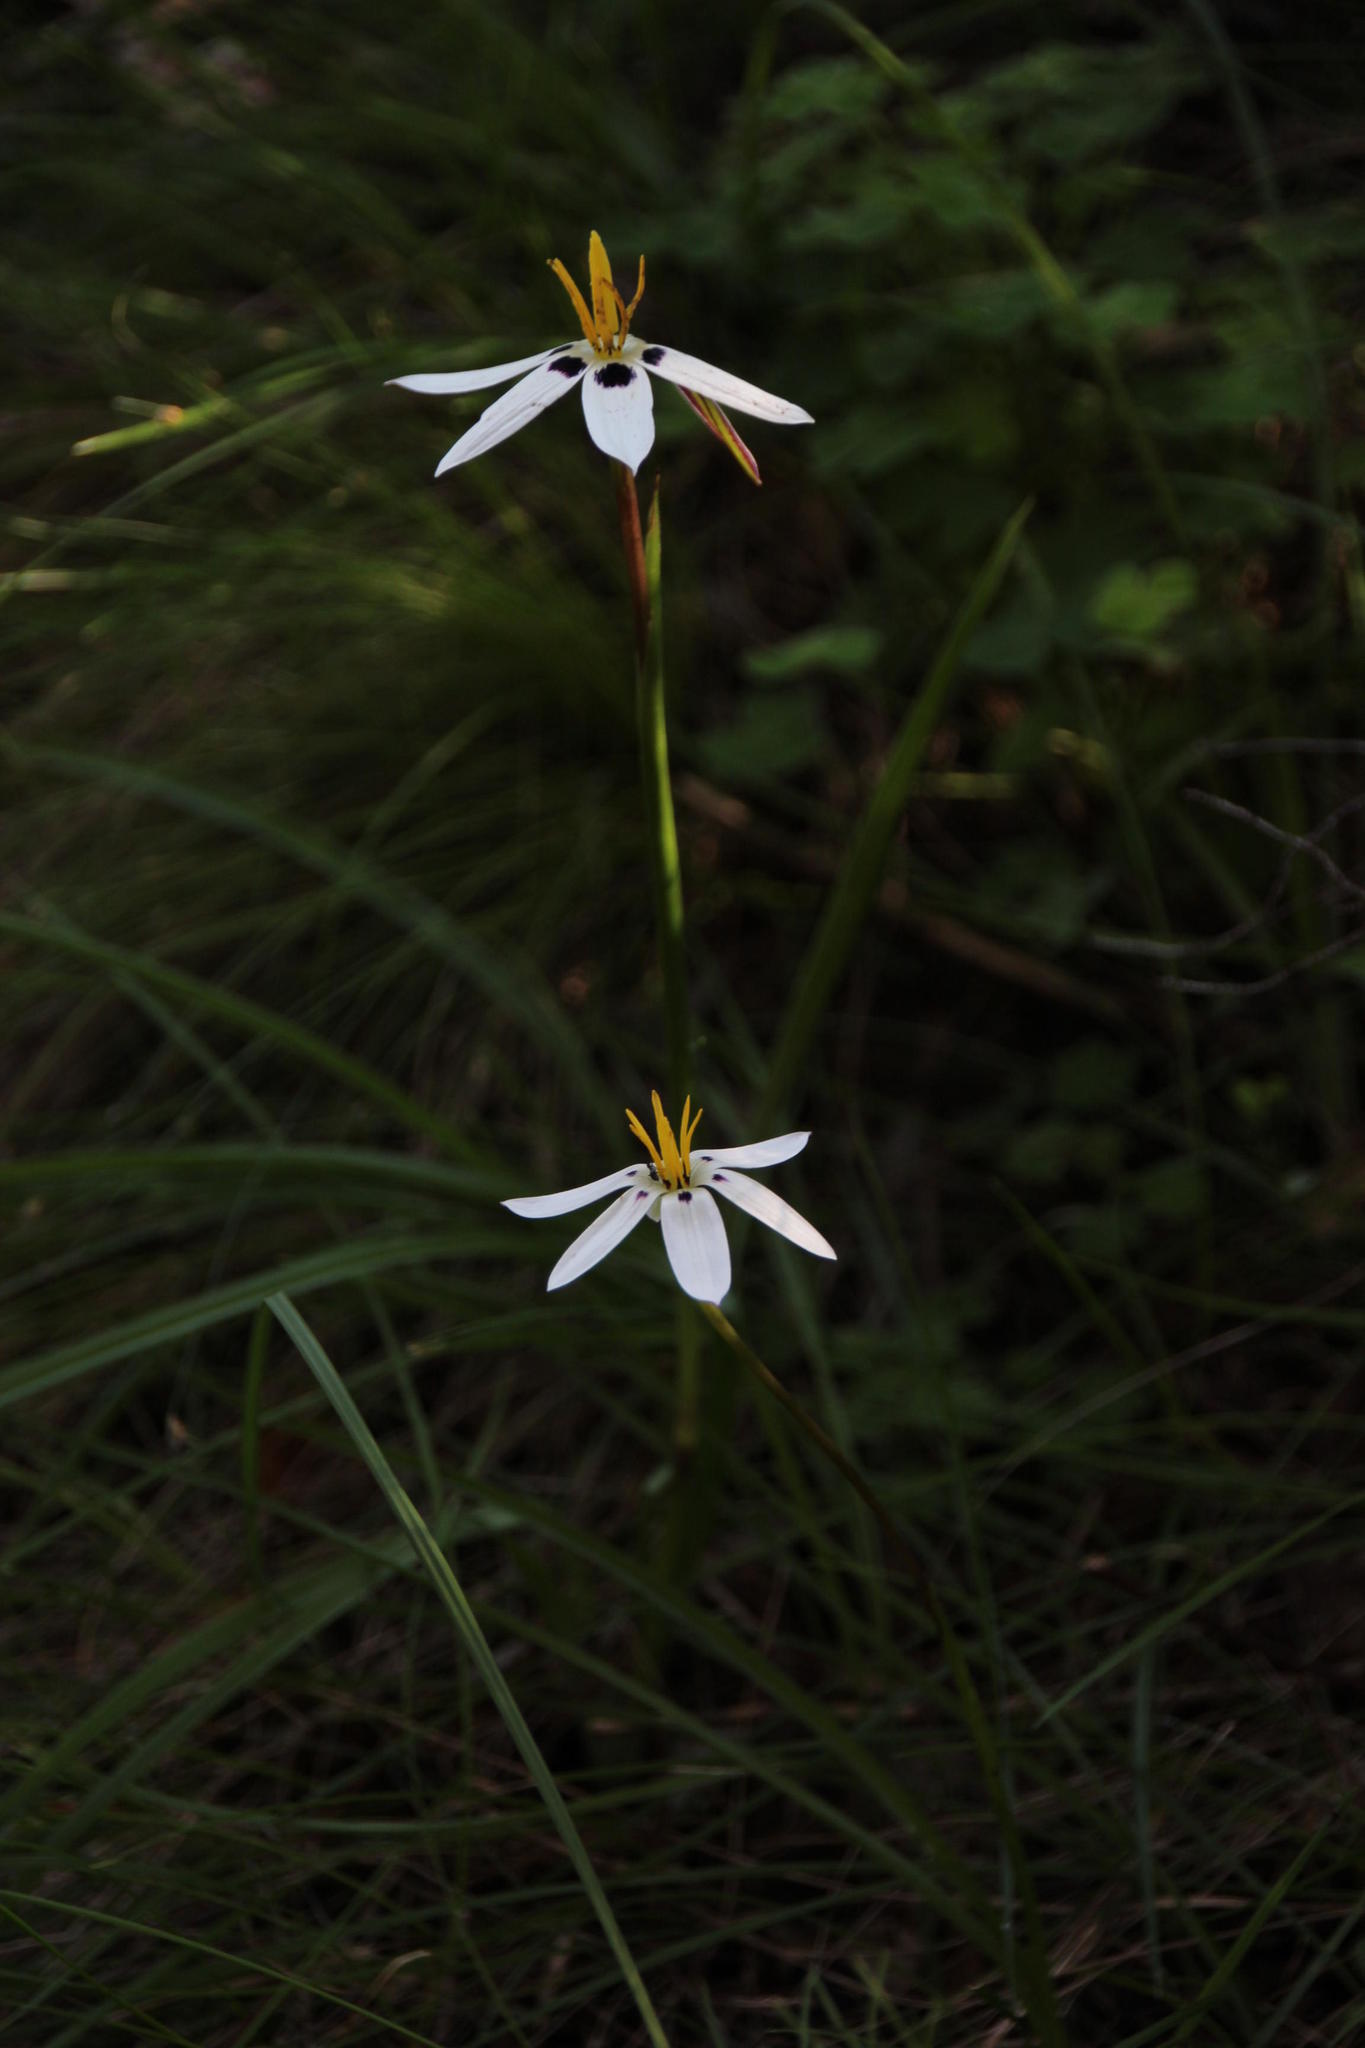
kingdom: Plantae
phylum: Tracheophyta
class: Liliopsida
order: Asparagales
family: Hypoxidaceae
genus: Pauridia
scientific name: Pauridia capensis
